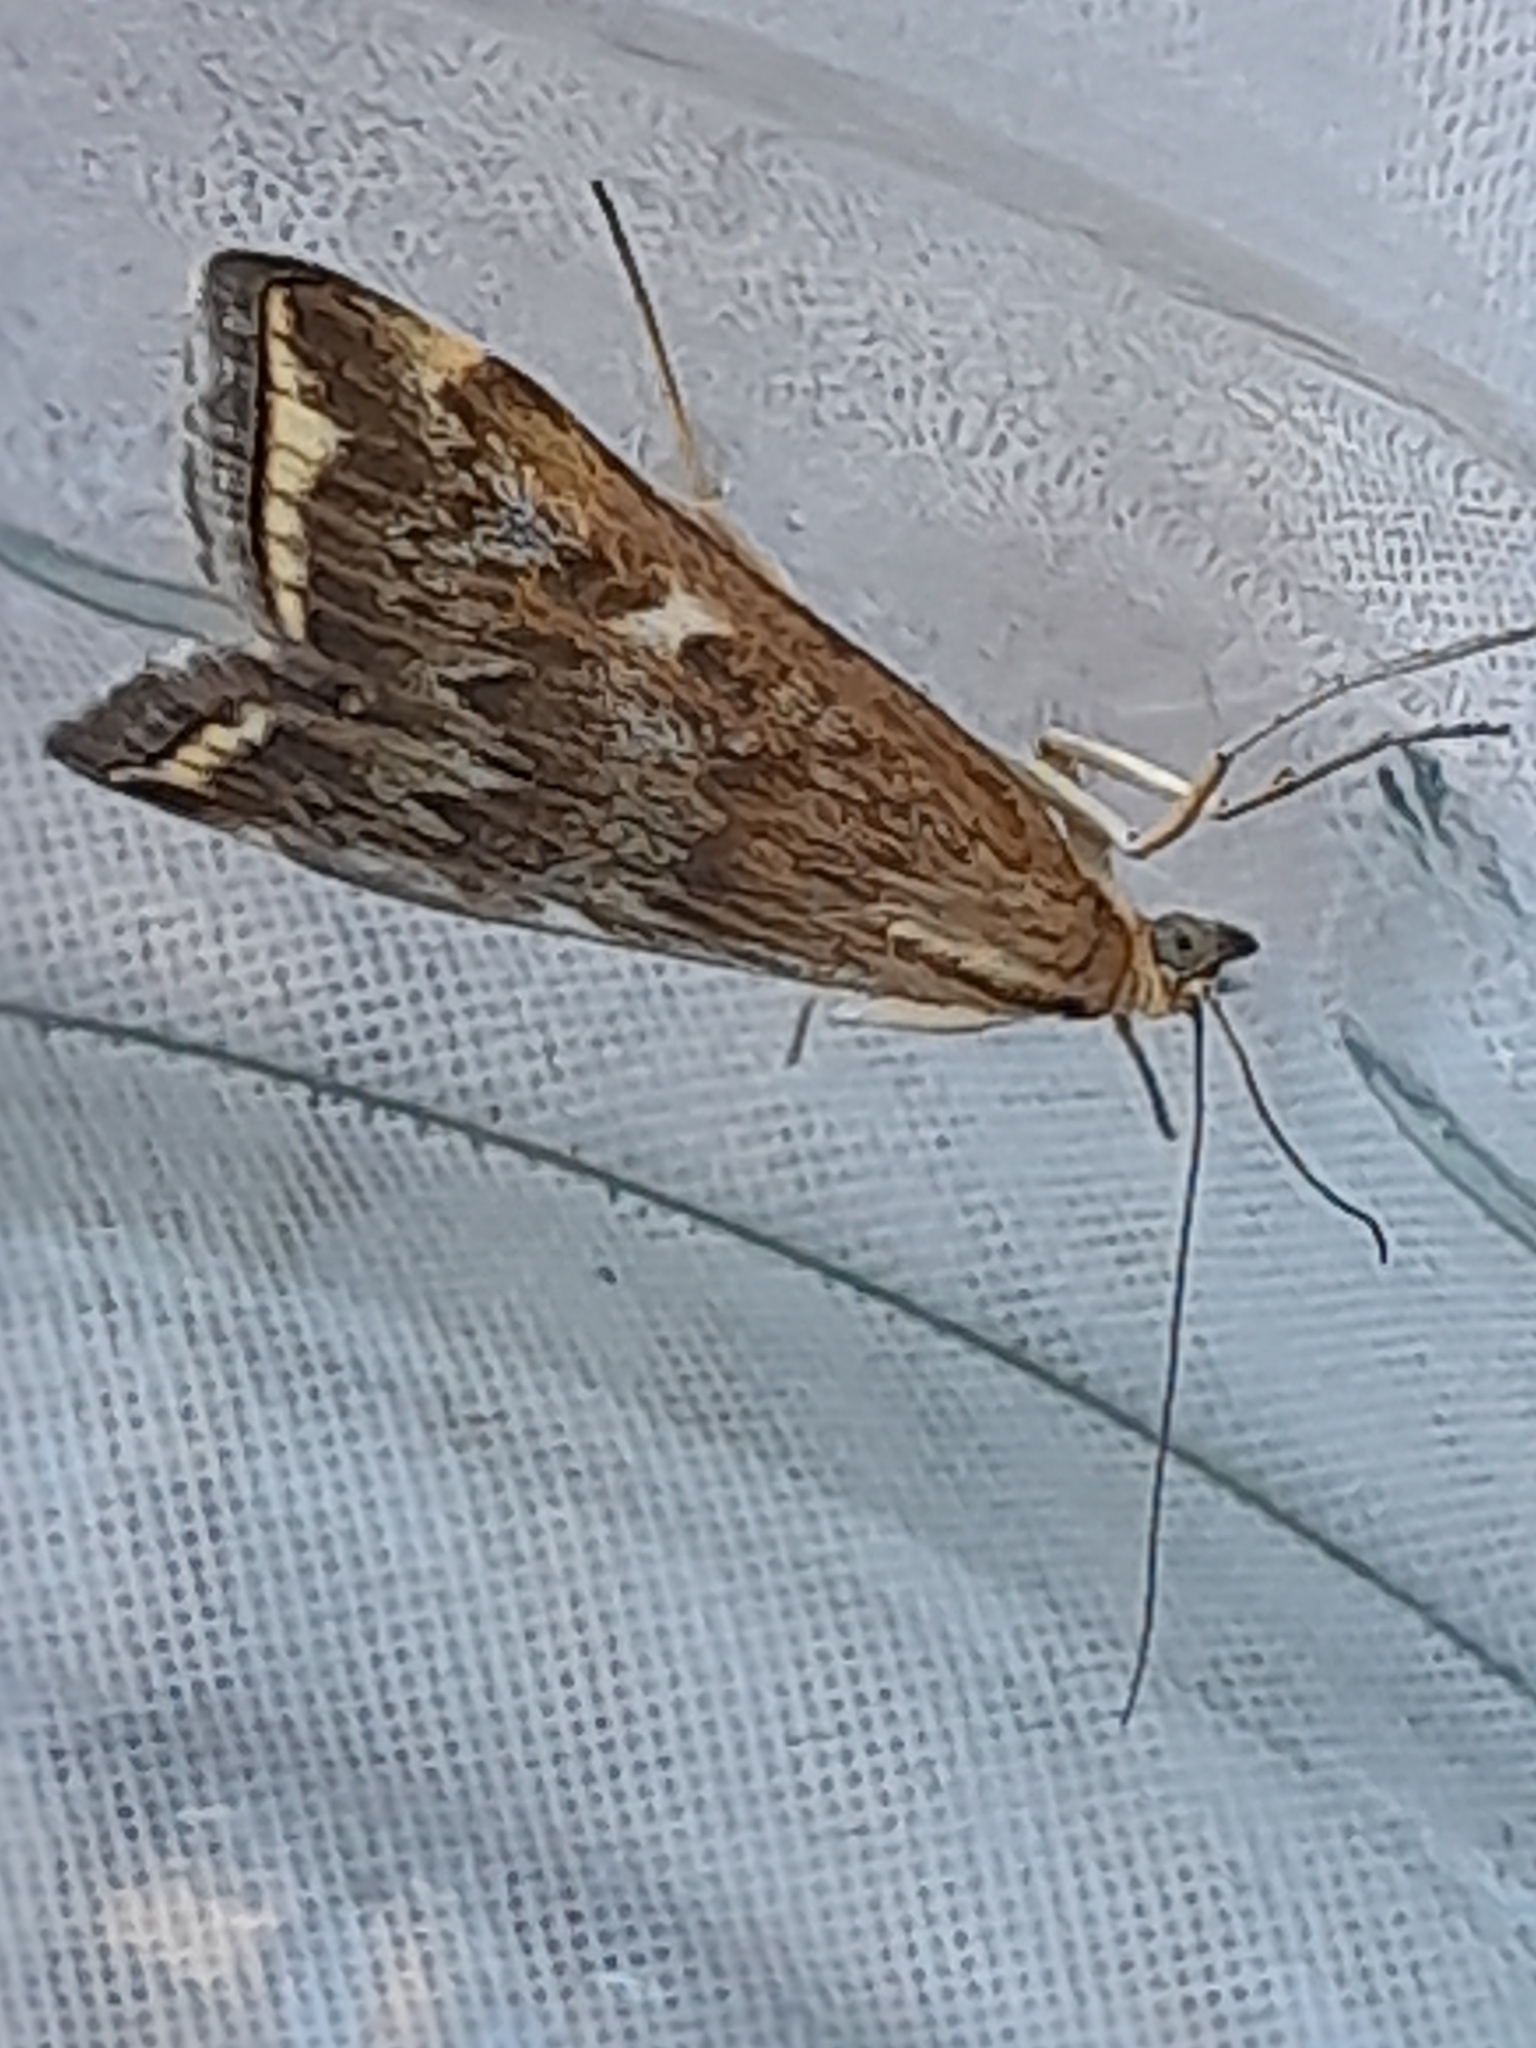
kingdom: Animalia
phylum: Arthropoda
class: Insecta
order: Lepidoptera
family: Crambidae
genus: Loxostege
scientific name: Loxostege sticticalis
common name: Crambid moth
